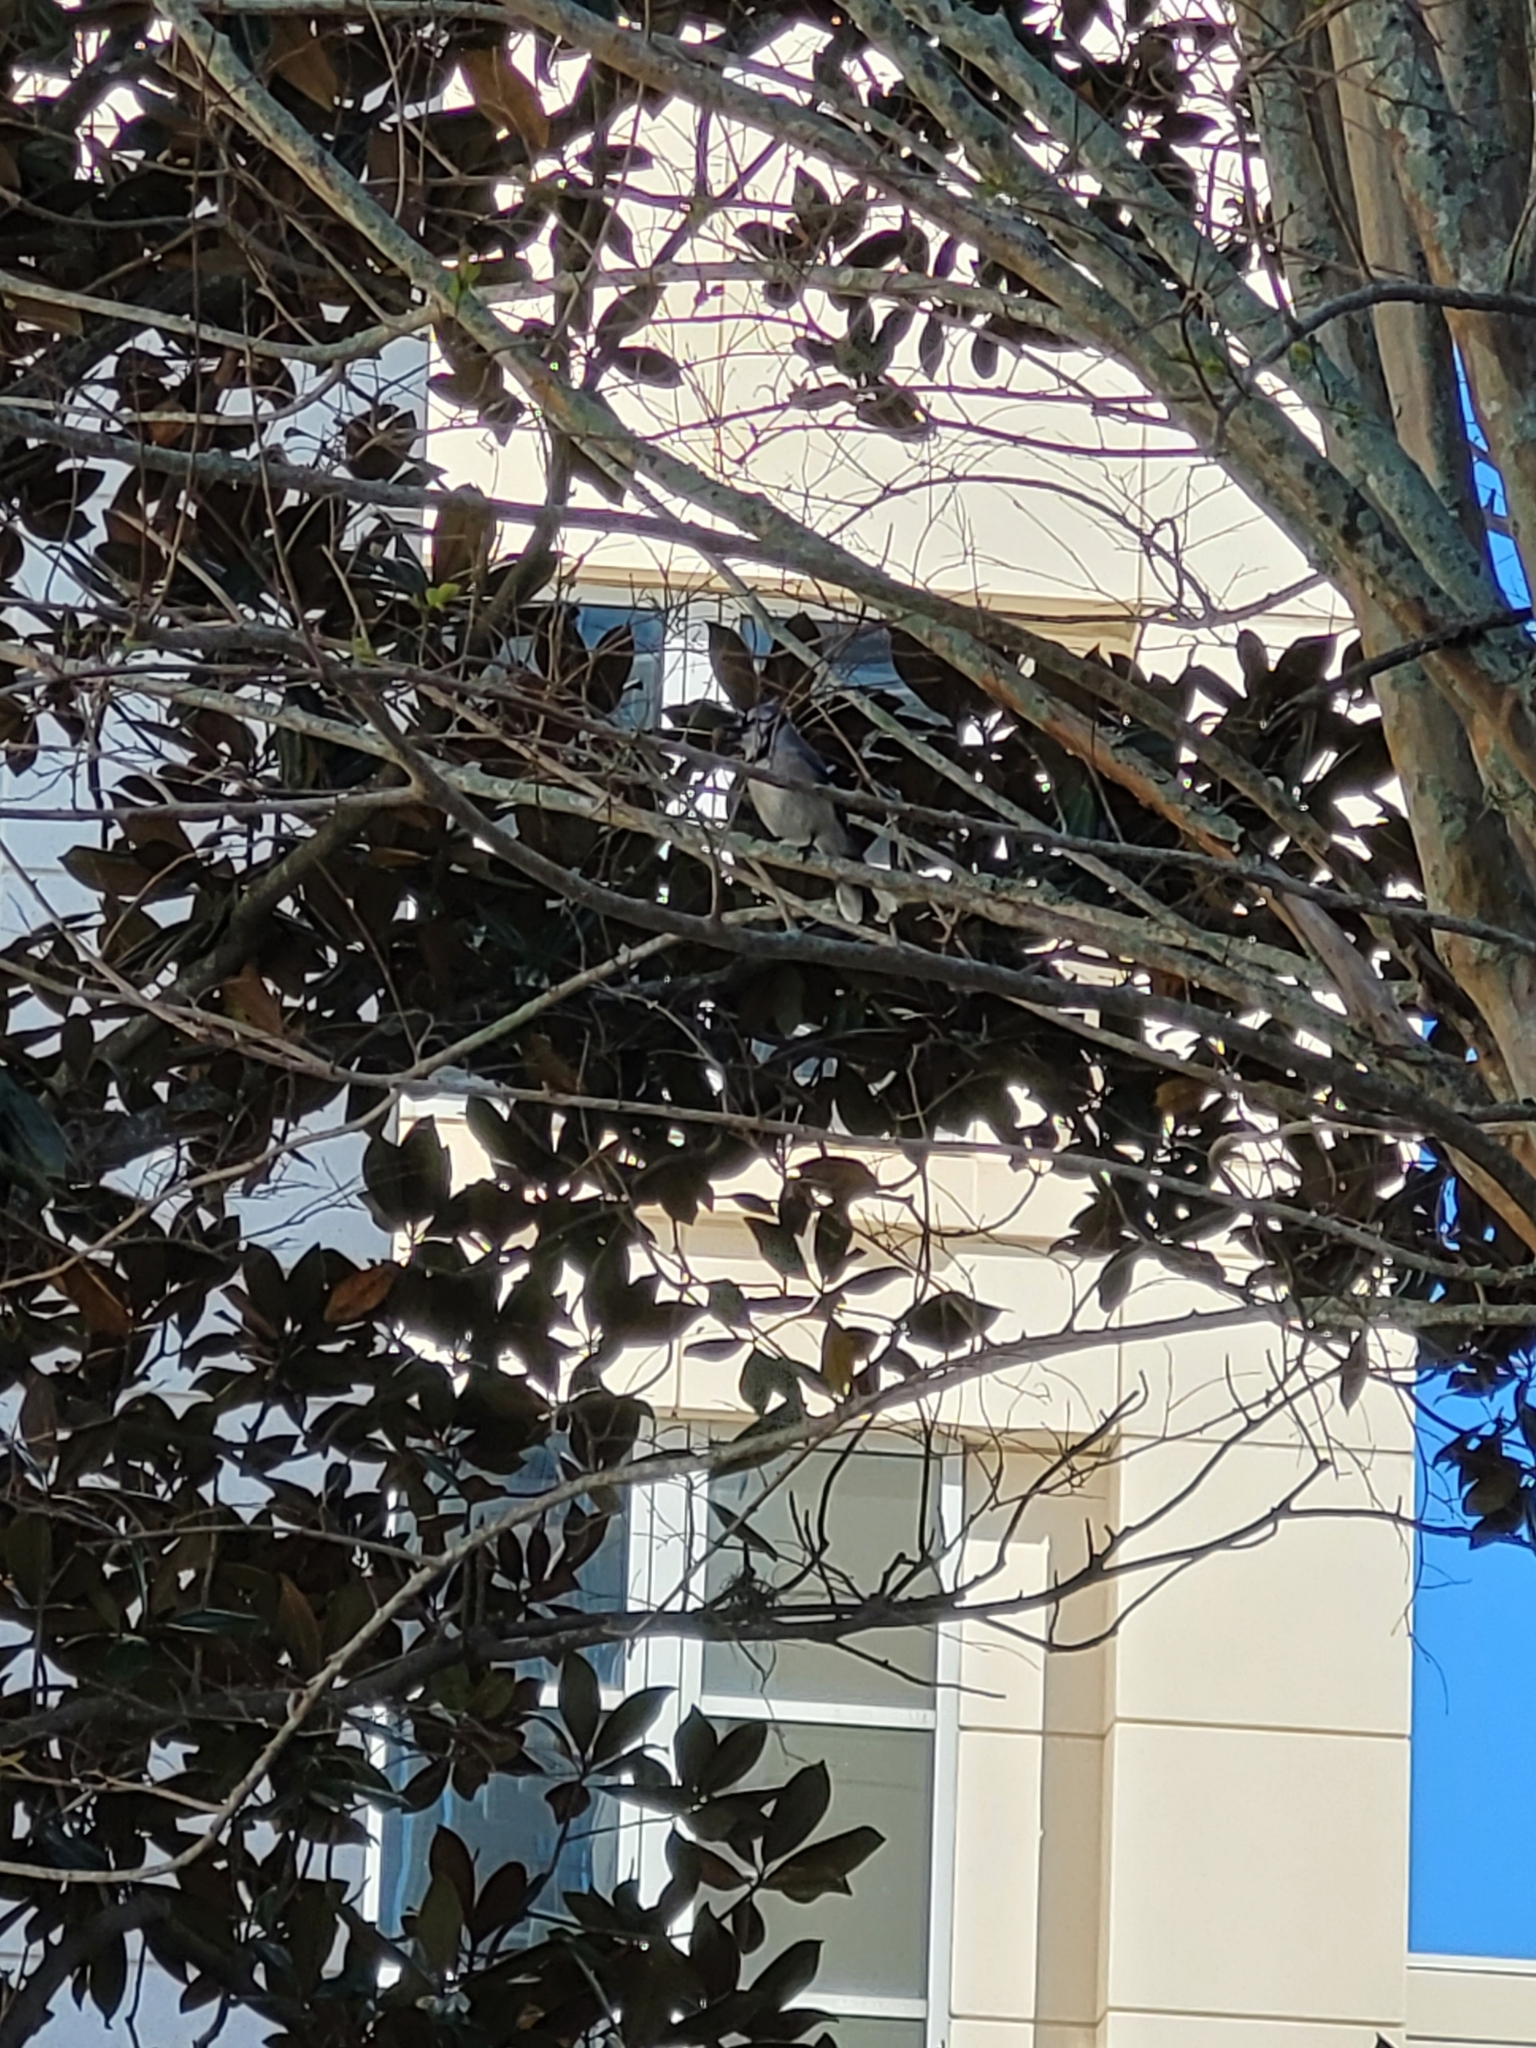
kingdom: Animalia
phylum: Chordata
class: Aves
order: Passeriformes
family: Corvidae
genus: Cyanocitta
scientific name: Cyanocitta cristata
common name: Blue jay
